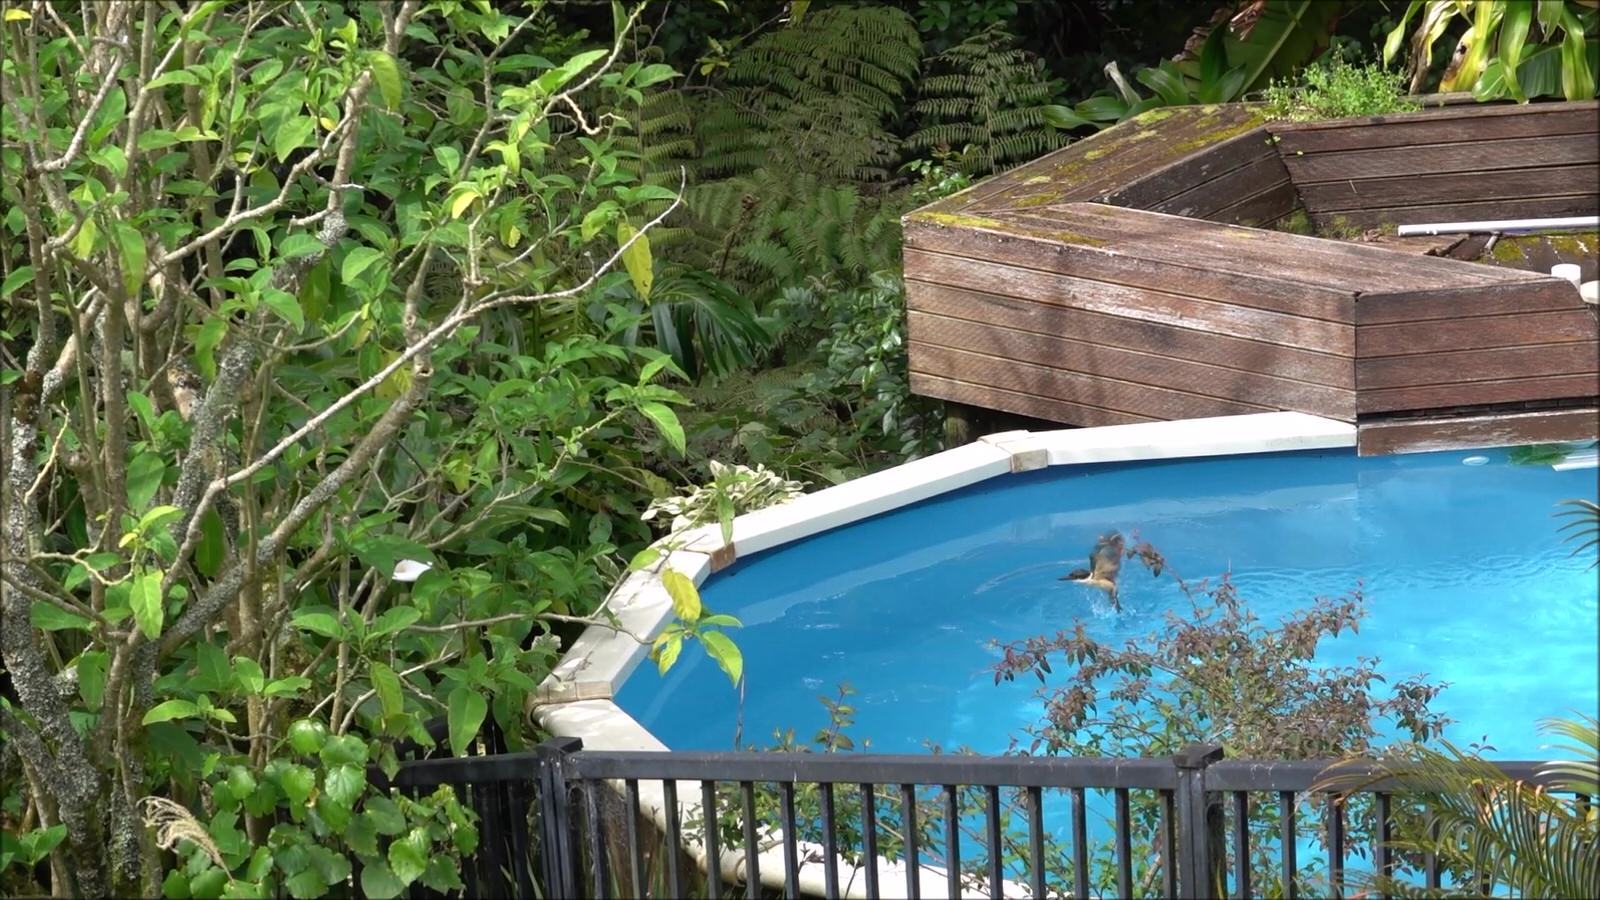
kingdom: Animalia
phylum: Chordata
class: Aves
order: Coraciiformes
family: Alcedinidae
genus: Todiramphus
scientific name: Todiramphus sanctus
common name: Sacred kingfisher
